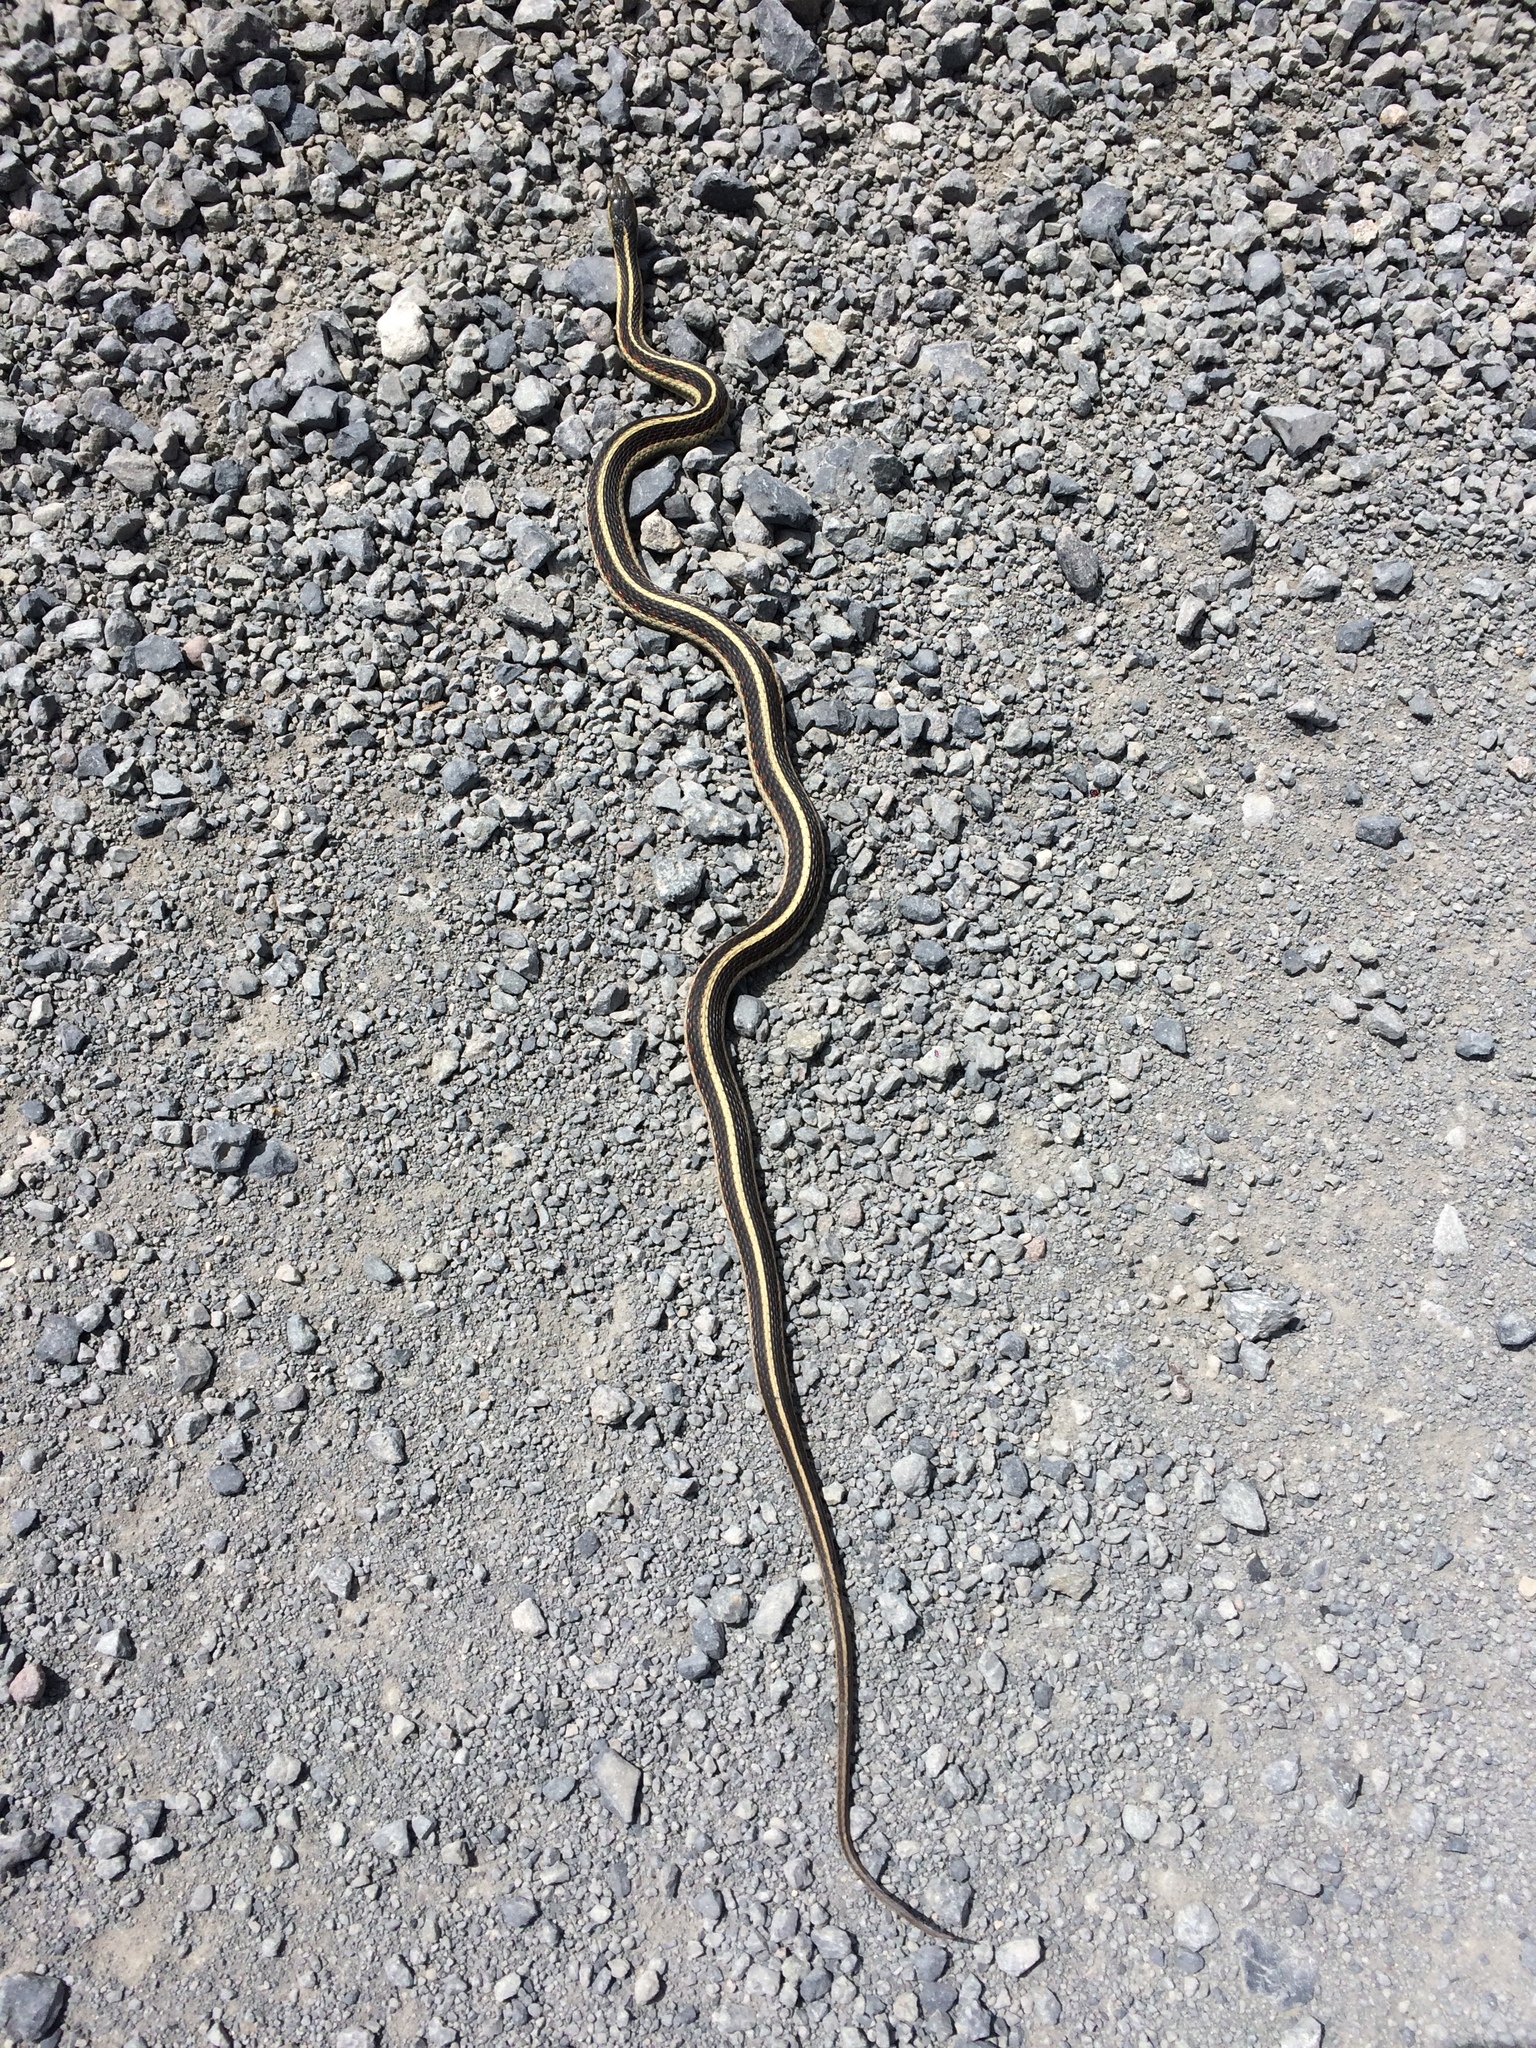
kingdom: Animalia
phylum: Chordata
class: Squamata
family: Colubridae
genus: Thamnophis
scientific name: Thamnophis sirtalis
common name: Common garter snake
